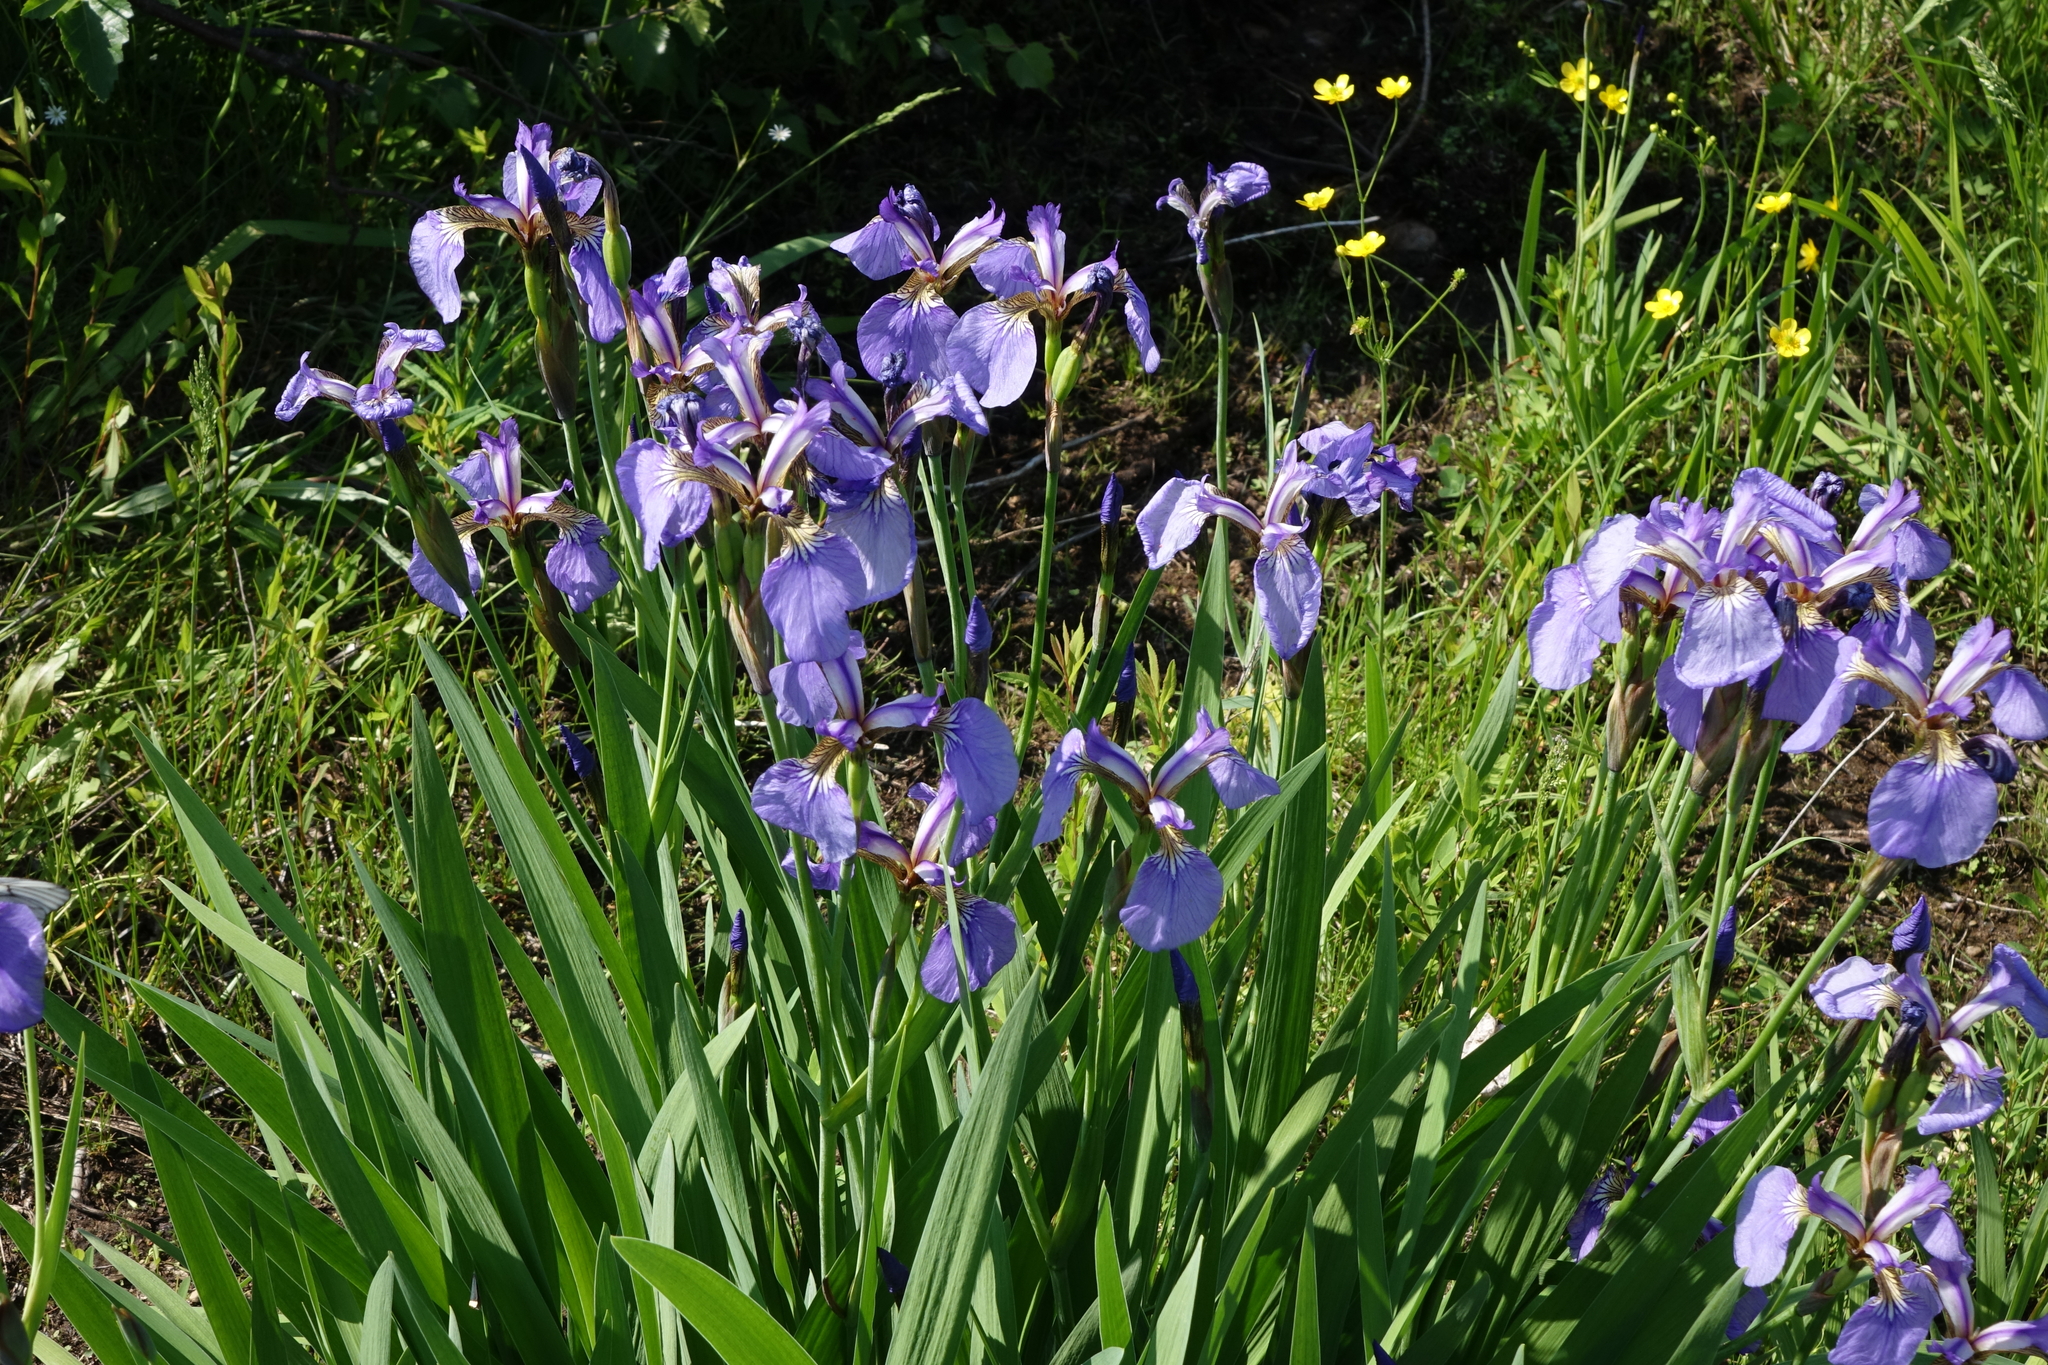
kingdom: Plantae
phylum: Tracheophyta
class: Liliopsida
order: Asparagales
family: Iridaceae
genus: Iris
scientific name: Iris setosa
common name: Arctic blue flag
